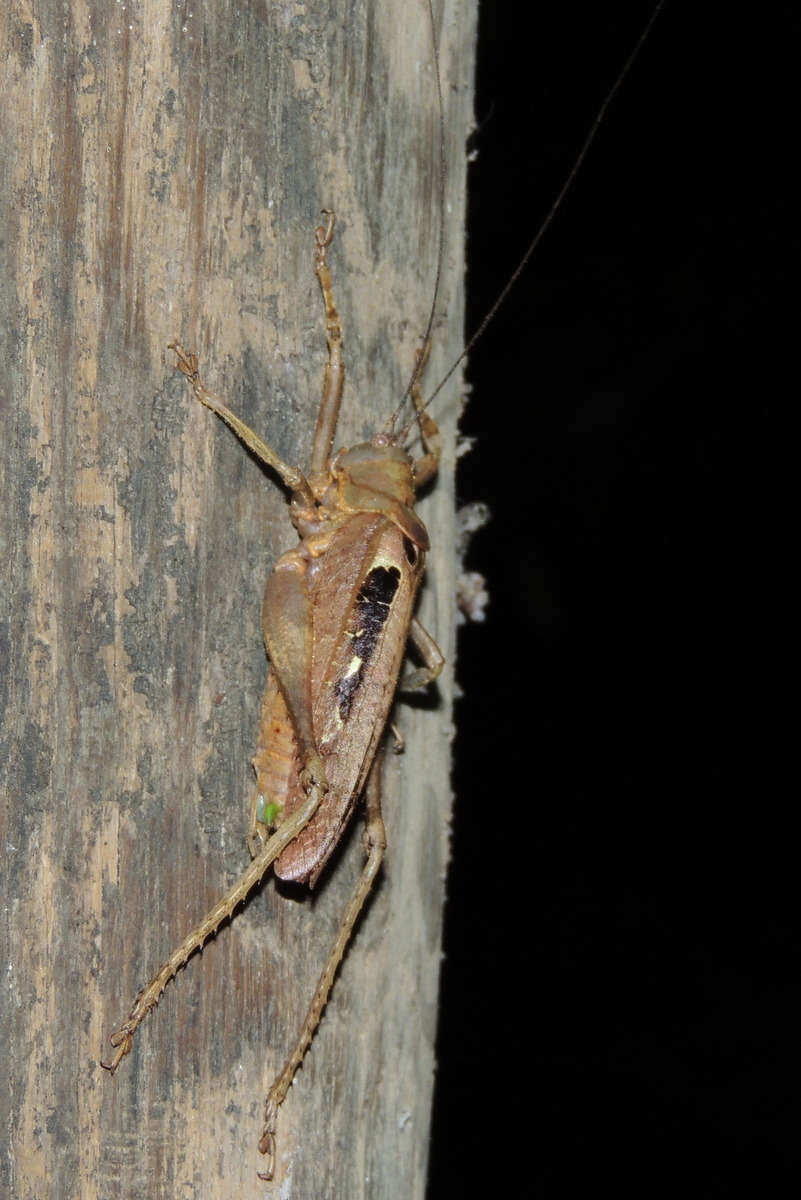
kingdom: Animalia
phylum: Arthropoda
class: Insecta
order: Orthoptera
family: Tettigoniidae
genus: Balboana
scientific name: Balboana tibialis
